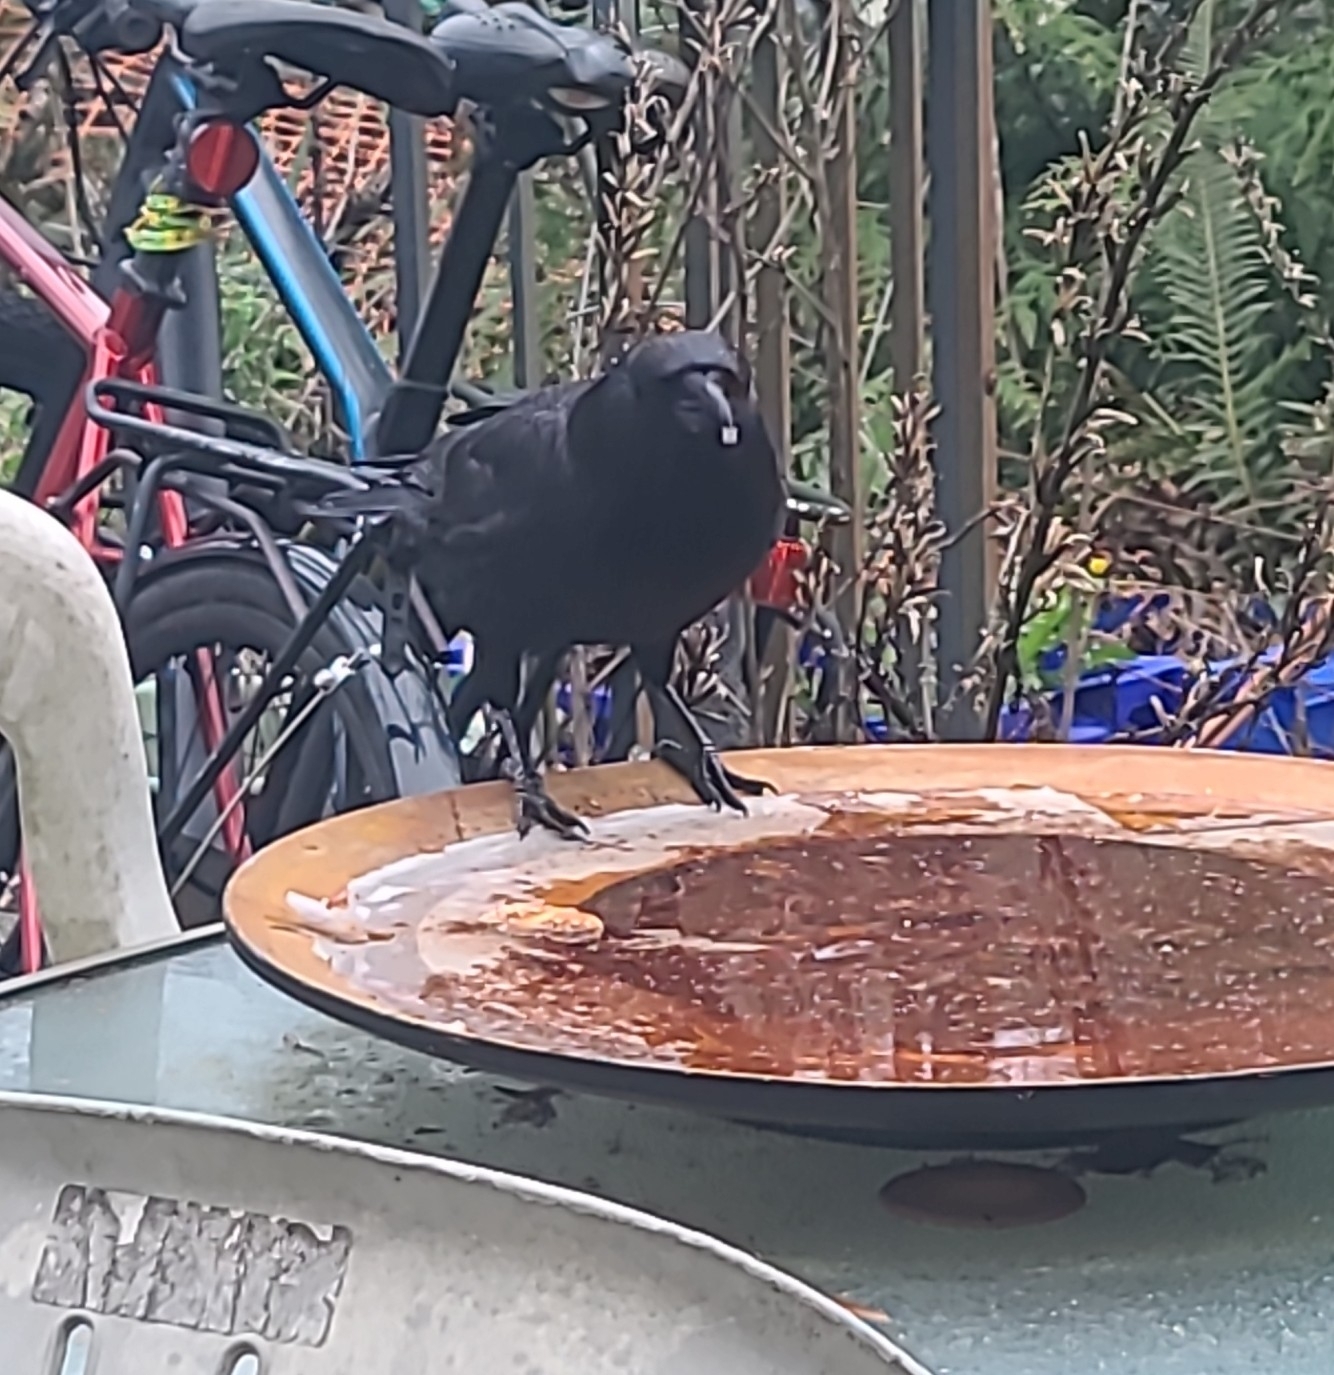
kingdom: Animalia
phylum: Chordata
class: Aves
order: Passeriformes
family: Corvidae
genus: Corvus
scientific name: Corvus brachyrhynchos
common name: American crow
